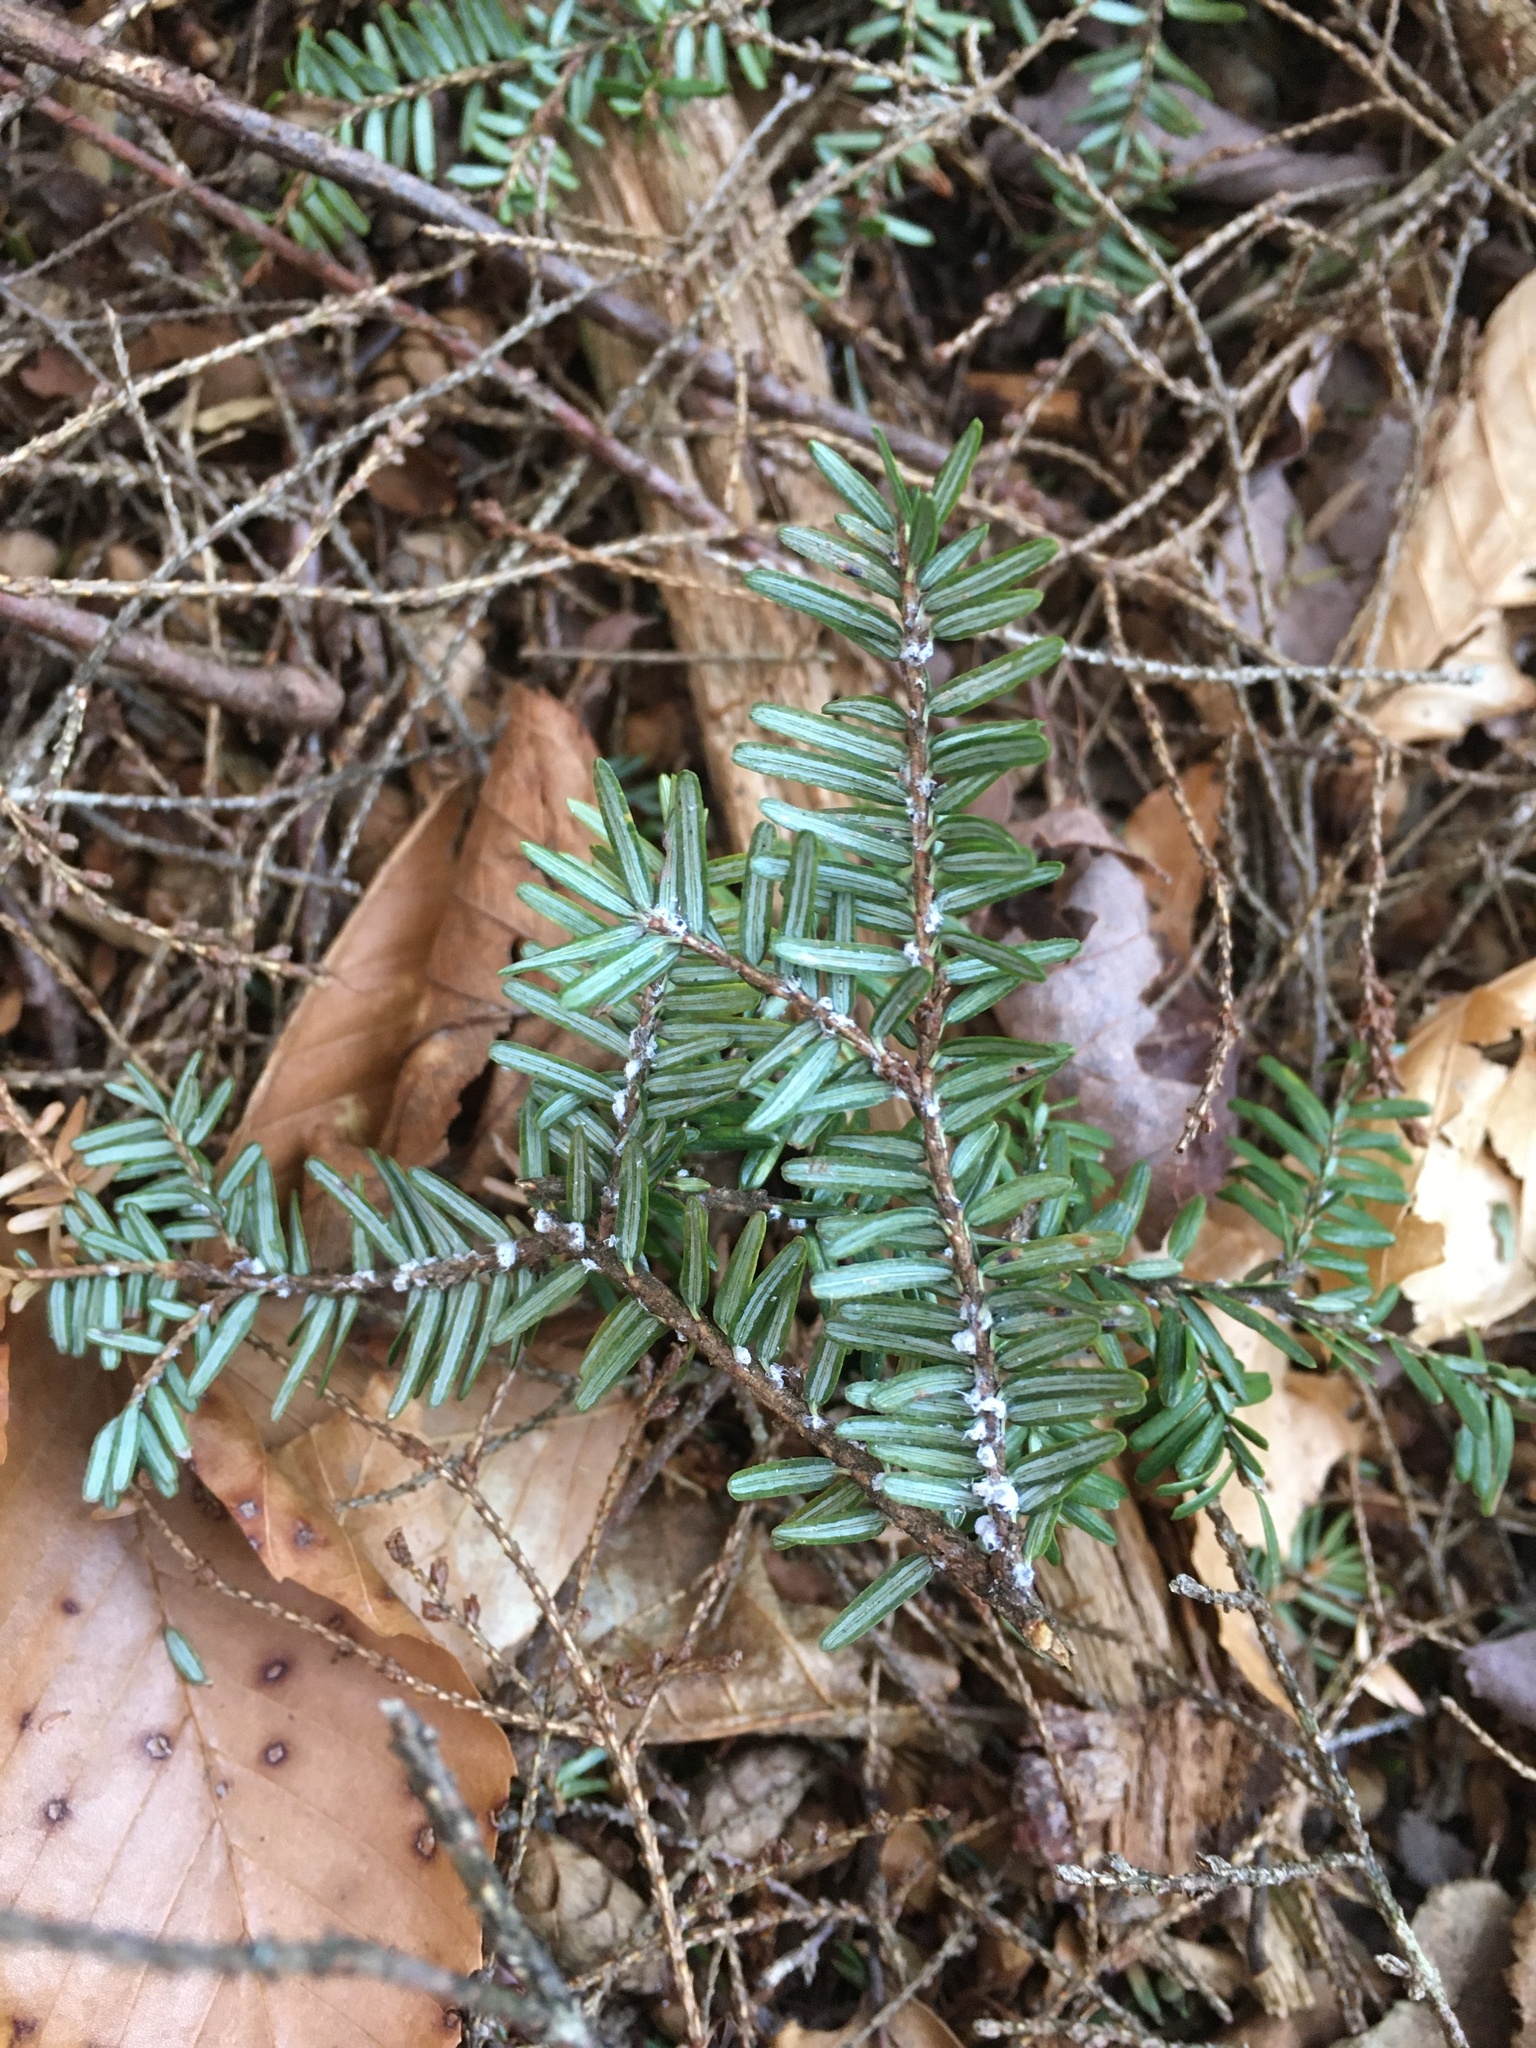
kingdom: Animalia
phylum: Arthropoda
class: Insecta
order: Hemiptera
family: Adelgidae
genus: Adelges
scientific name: Adelges tsugae
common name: Hemlock woolly adelgid
